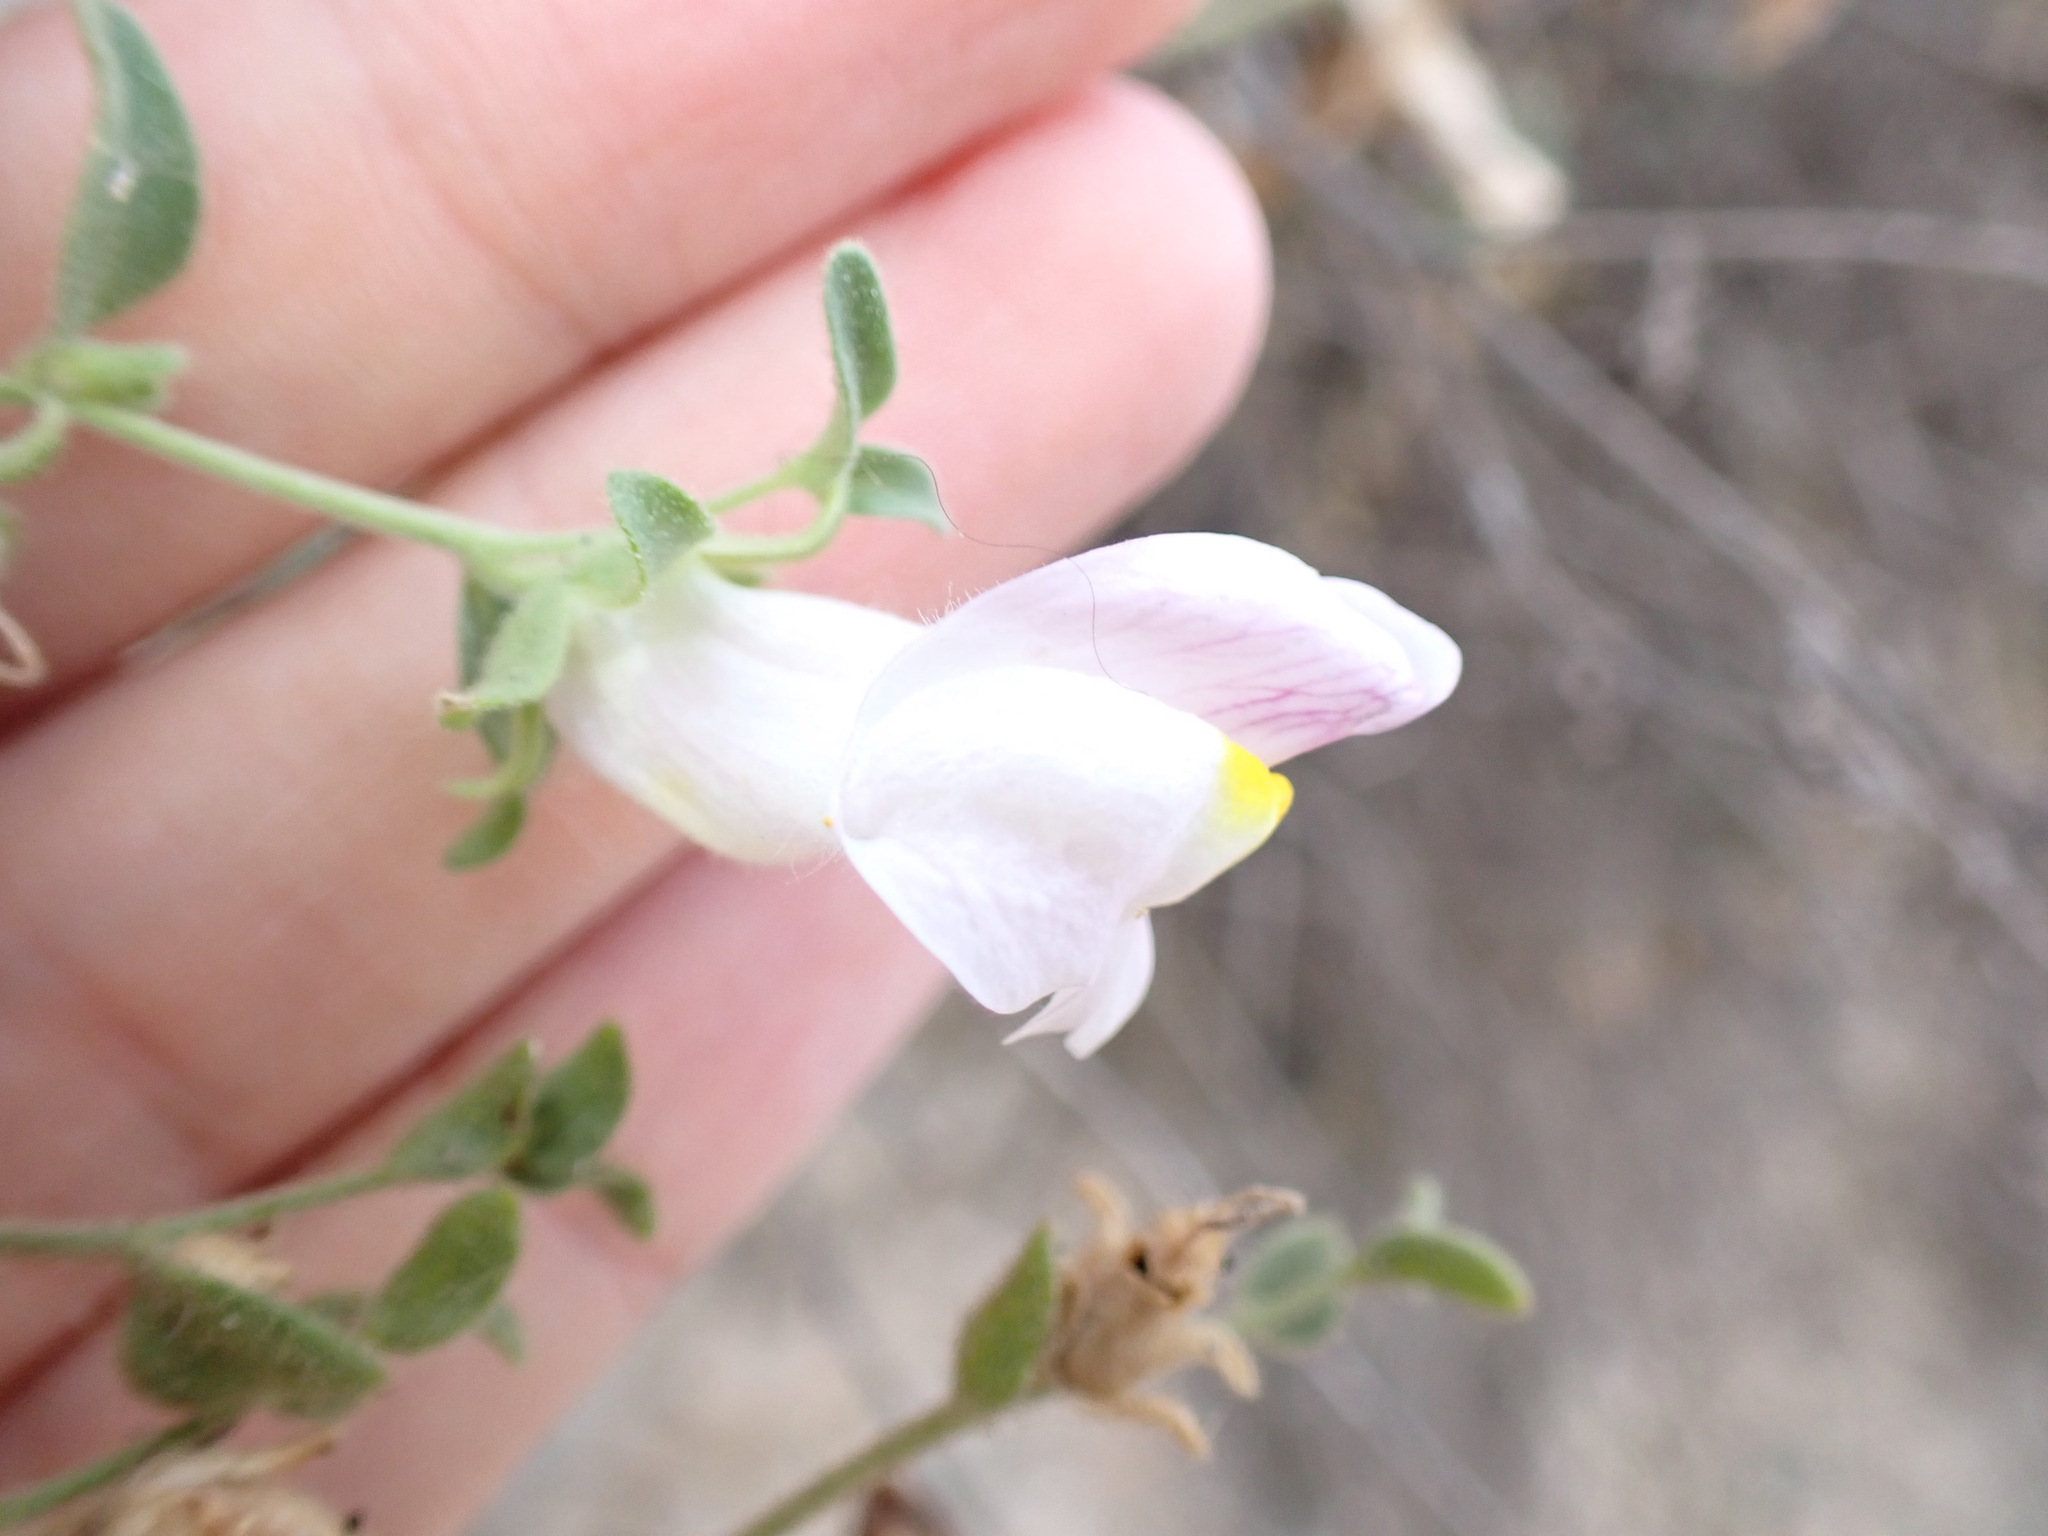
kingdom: Plantae
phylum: Tracheophyta
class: Magnoliopsida
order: Lamiales
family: Plantaginaceae
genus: Antirrhinum
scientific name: Antirrhinum graniticum
